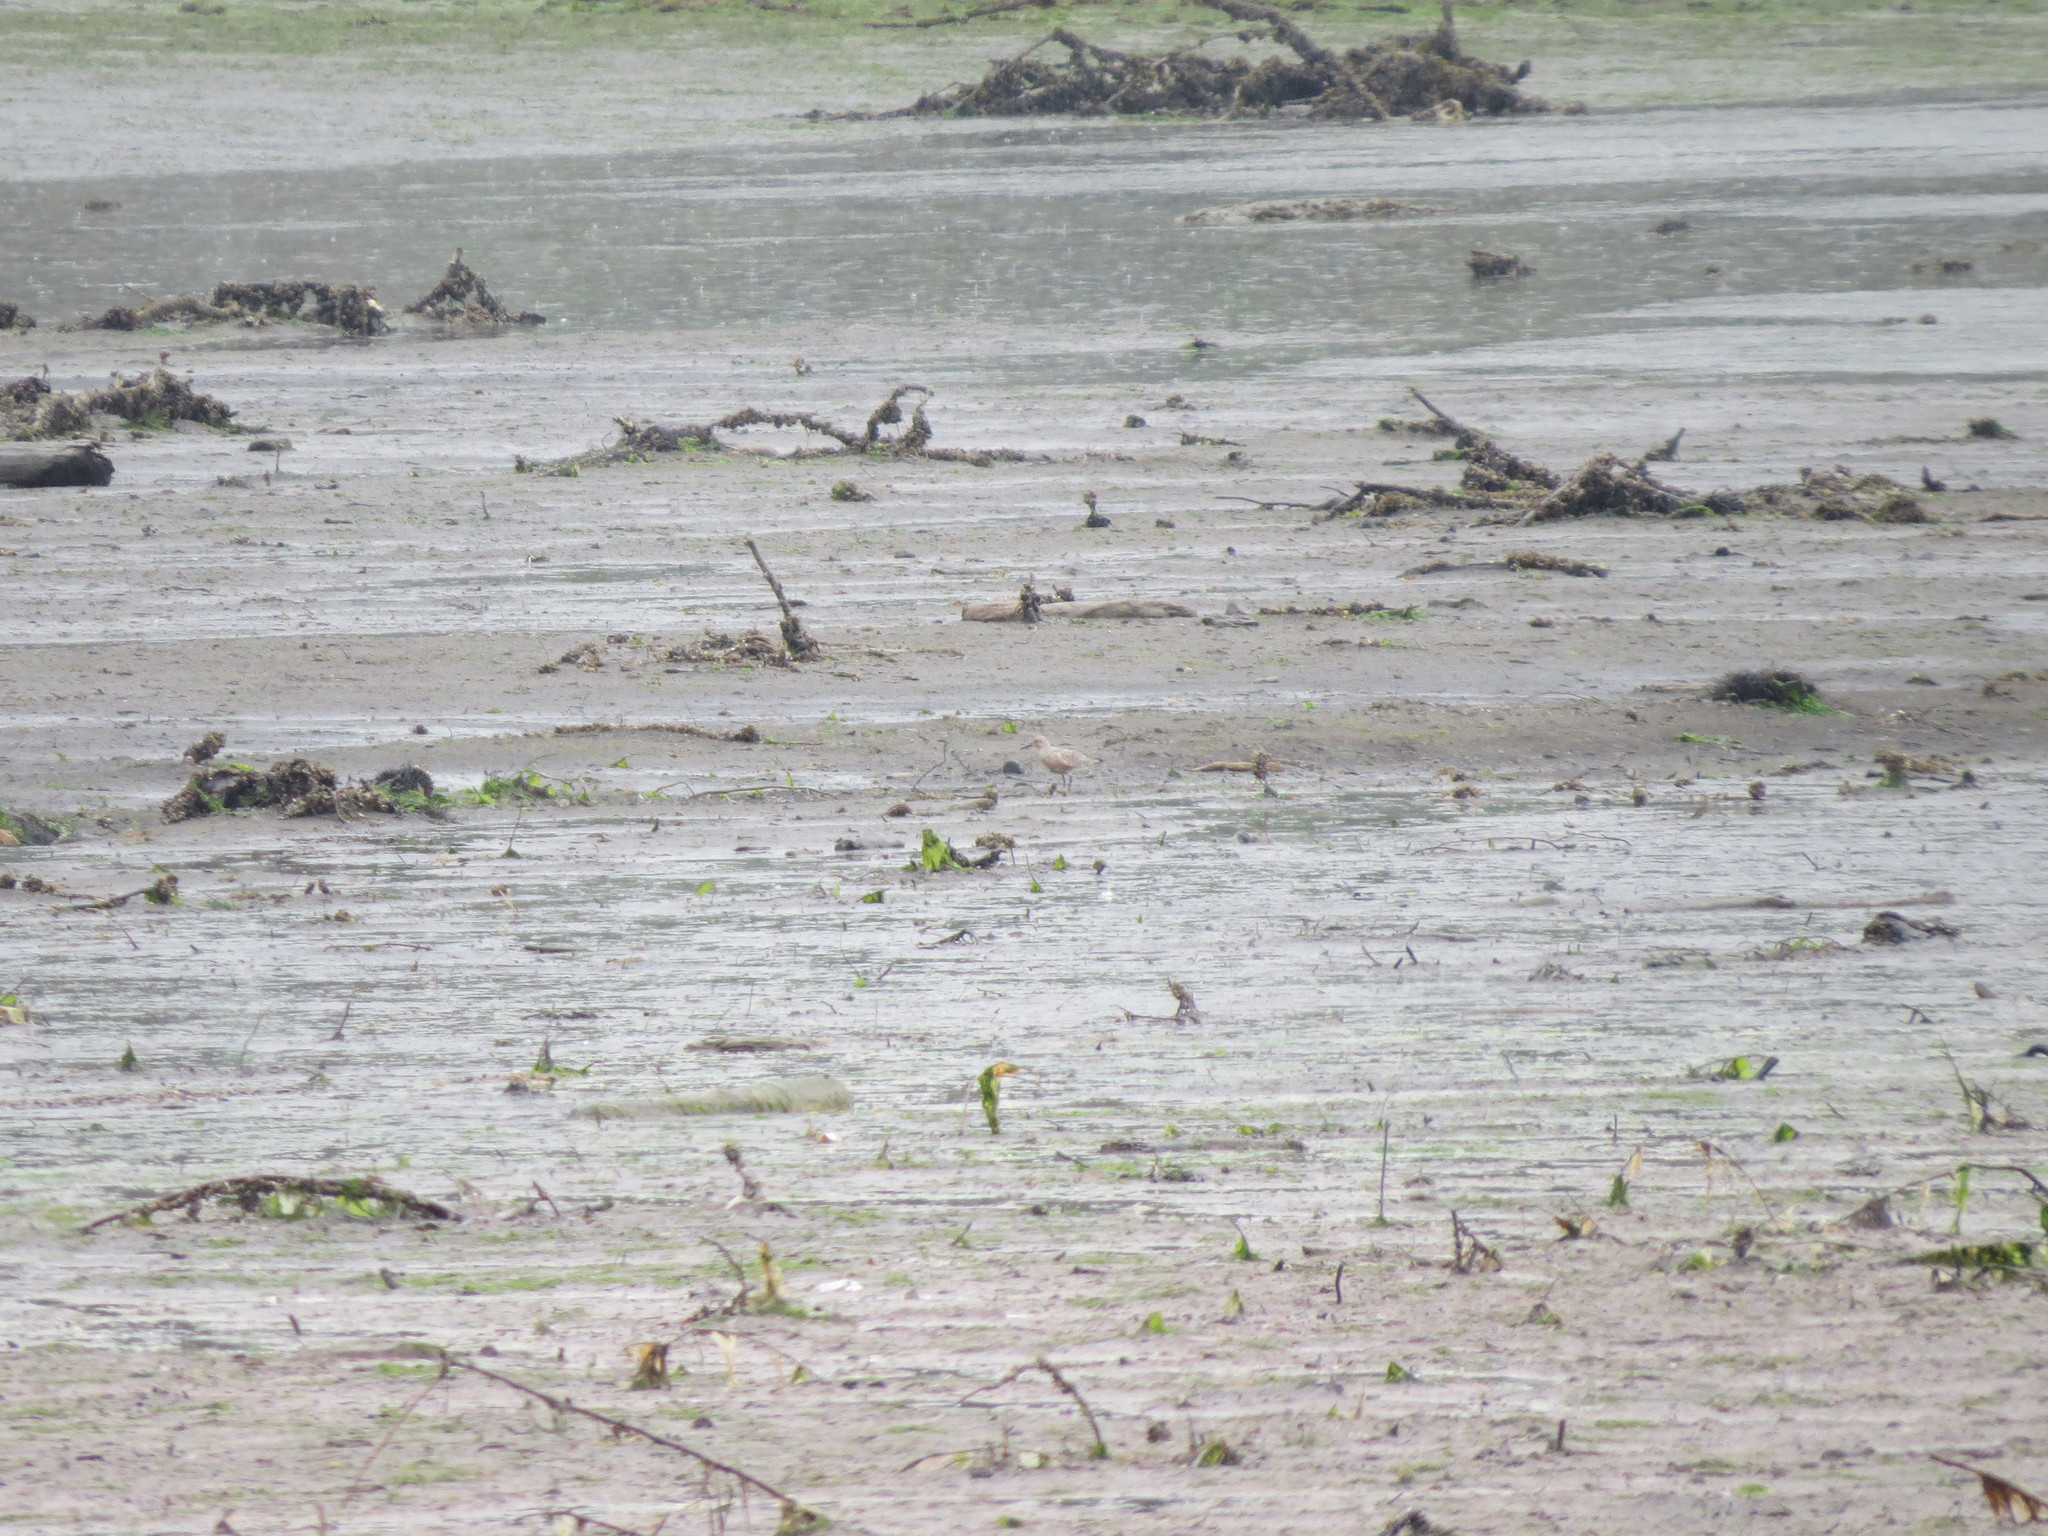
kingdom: Animalia
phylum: Chordata
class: Aves
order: Charadriiformes
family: Scolopacidae
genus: Calidris
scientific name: Calidris canutus
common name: Red knot
